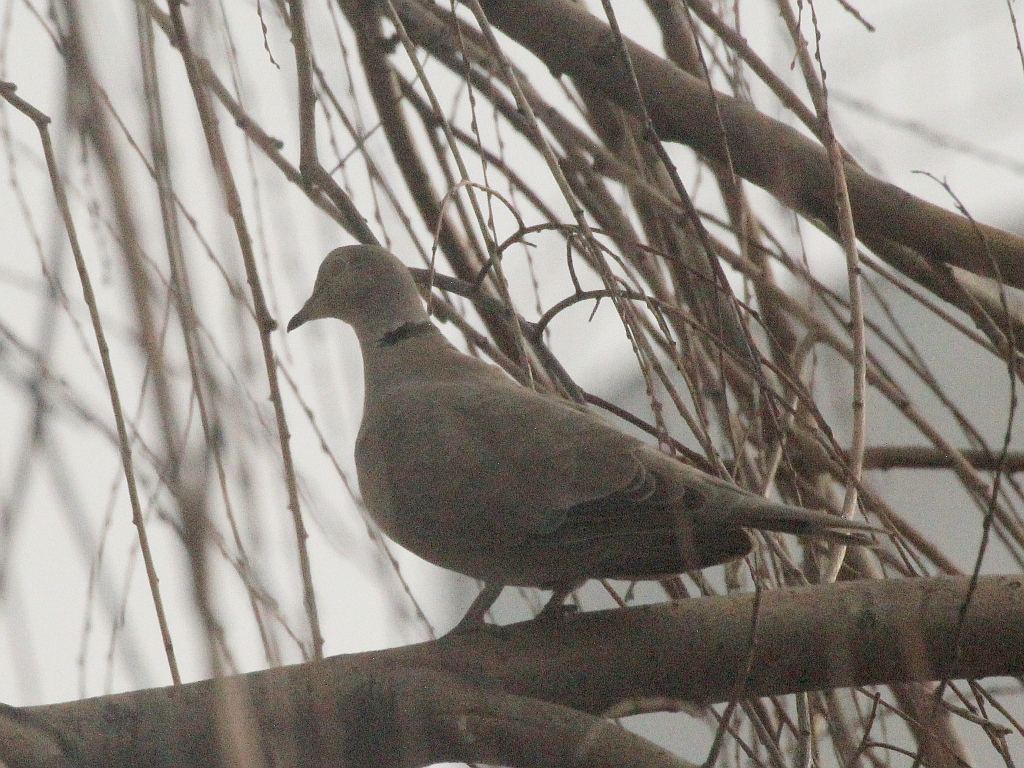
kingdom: Animalia
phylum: Chordata
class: Aves
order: Columbiformes
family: Columbidae
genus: Streptopelia
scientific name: Streptopelia decaocto
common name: Eurasian collared dove
